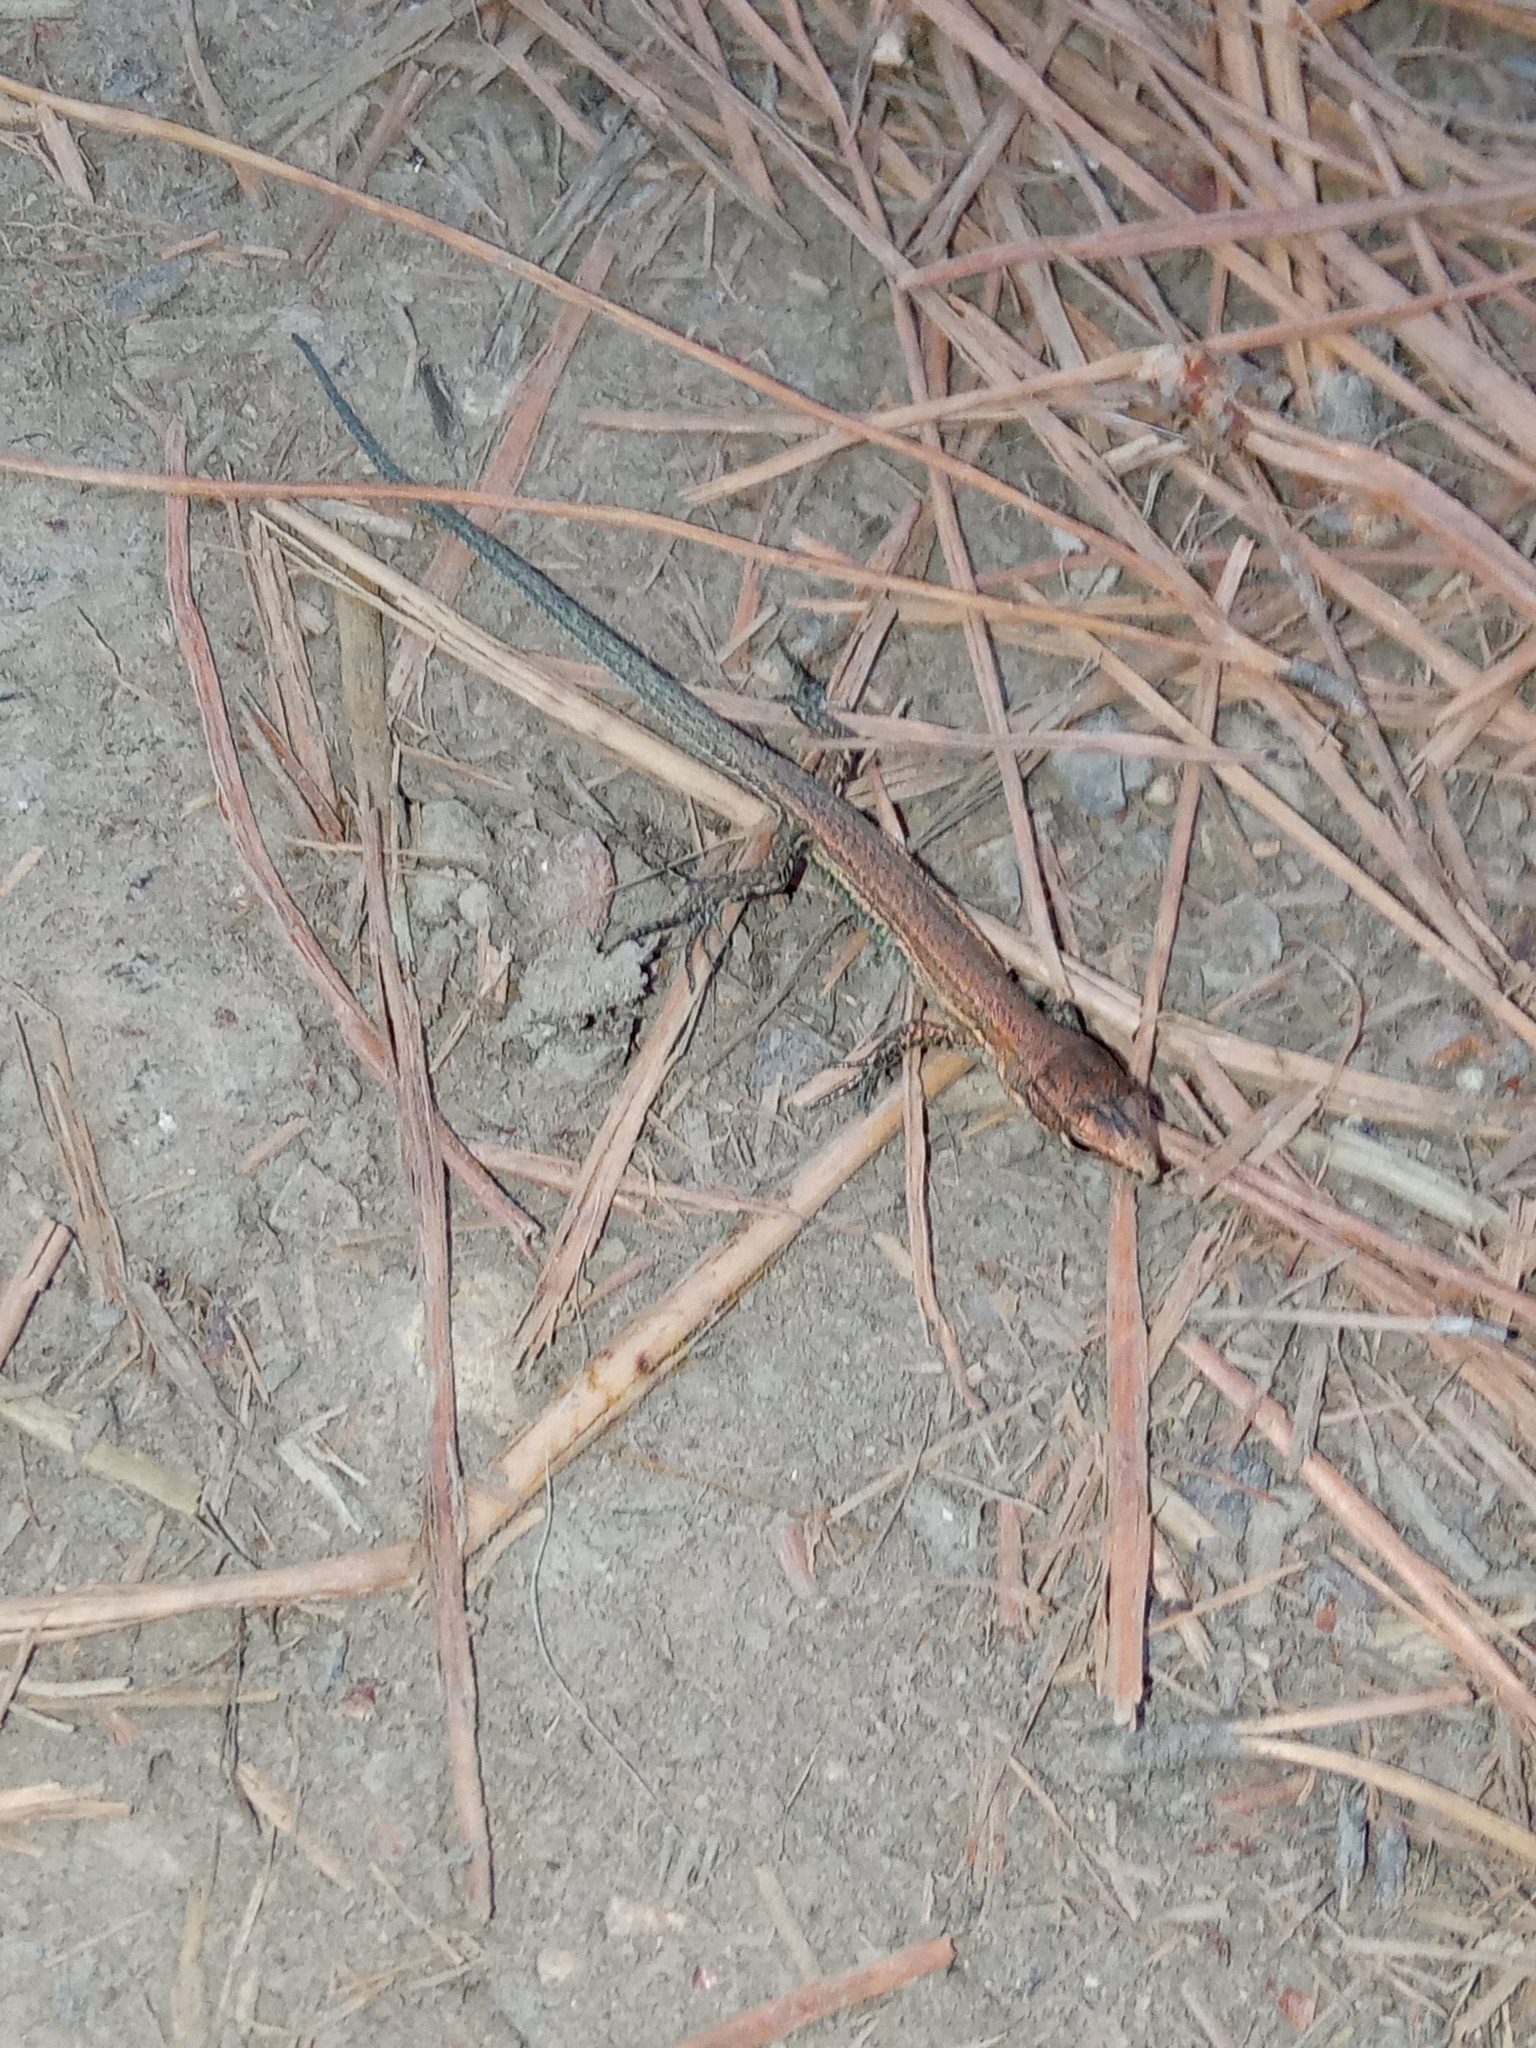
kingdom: Animalia
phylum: Chordata
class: Squamata
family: Lacertidae
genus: Darevskia
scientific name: Darevskia praticola
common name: Meadow lizard
